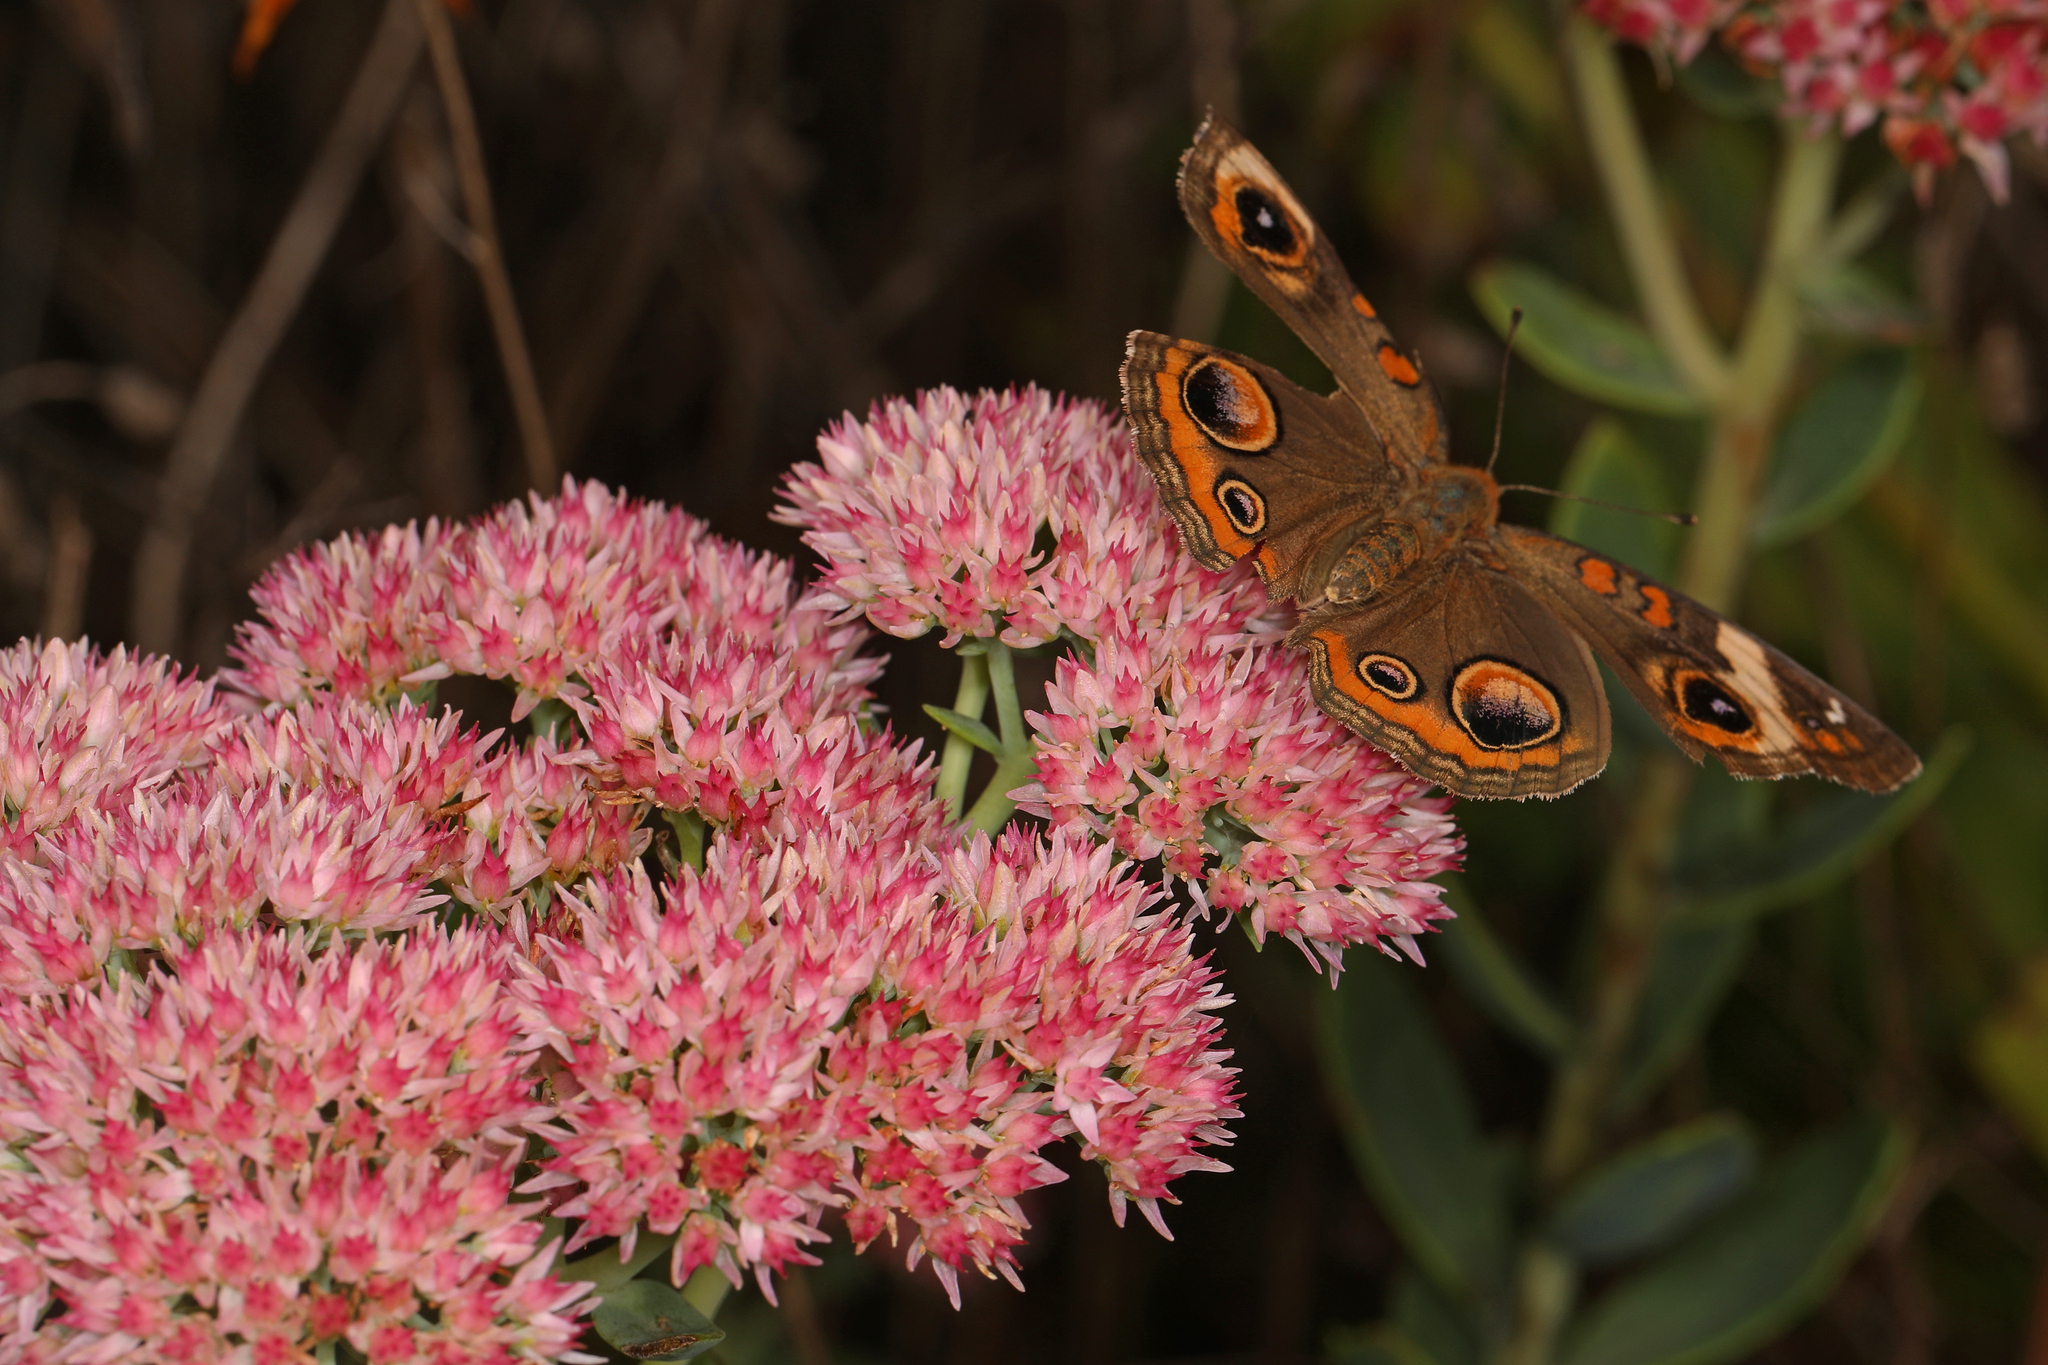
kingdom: Animalia
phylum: Arthropoda
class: Insecta
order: Lepidoptera
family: Nymphalidae
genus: Junonia
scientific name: Junonia coenia
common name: Common buckeye
